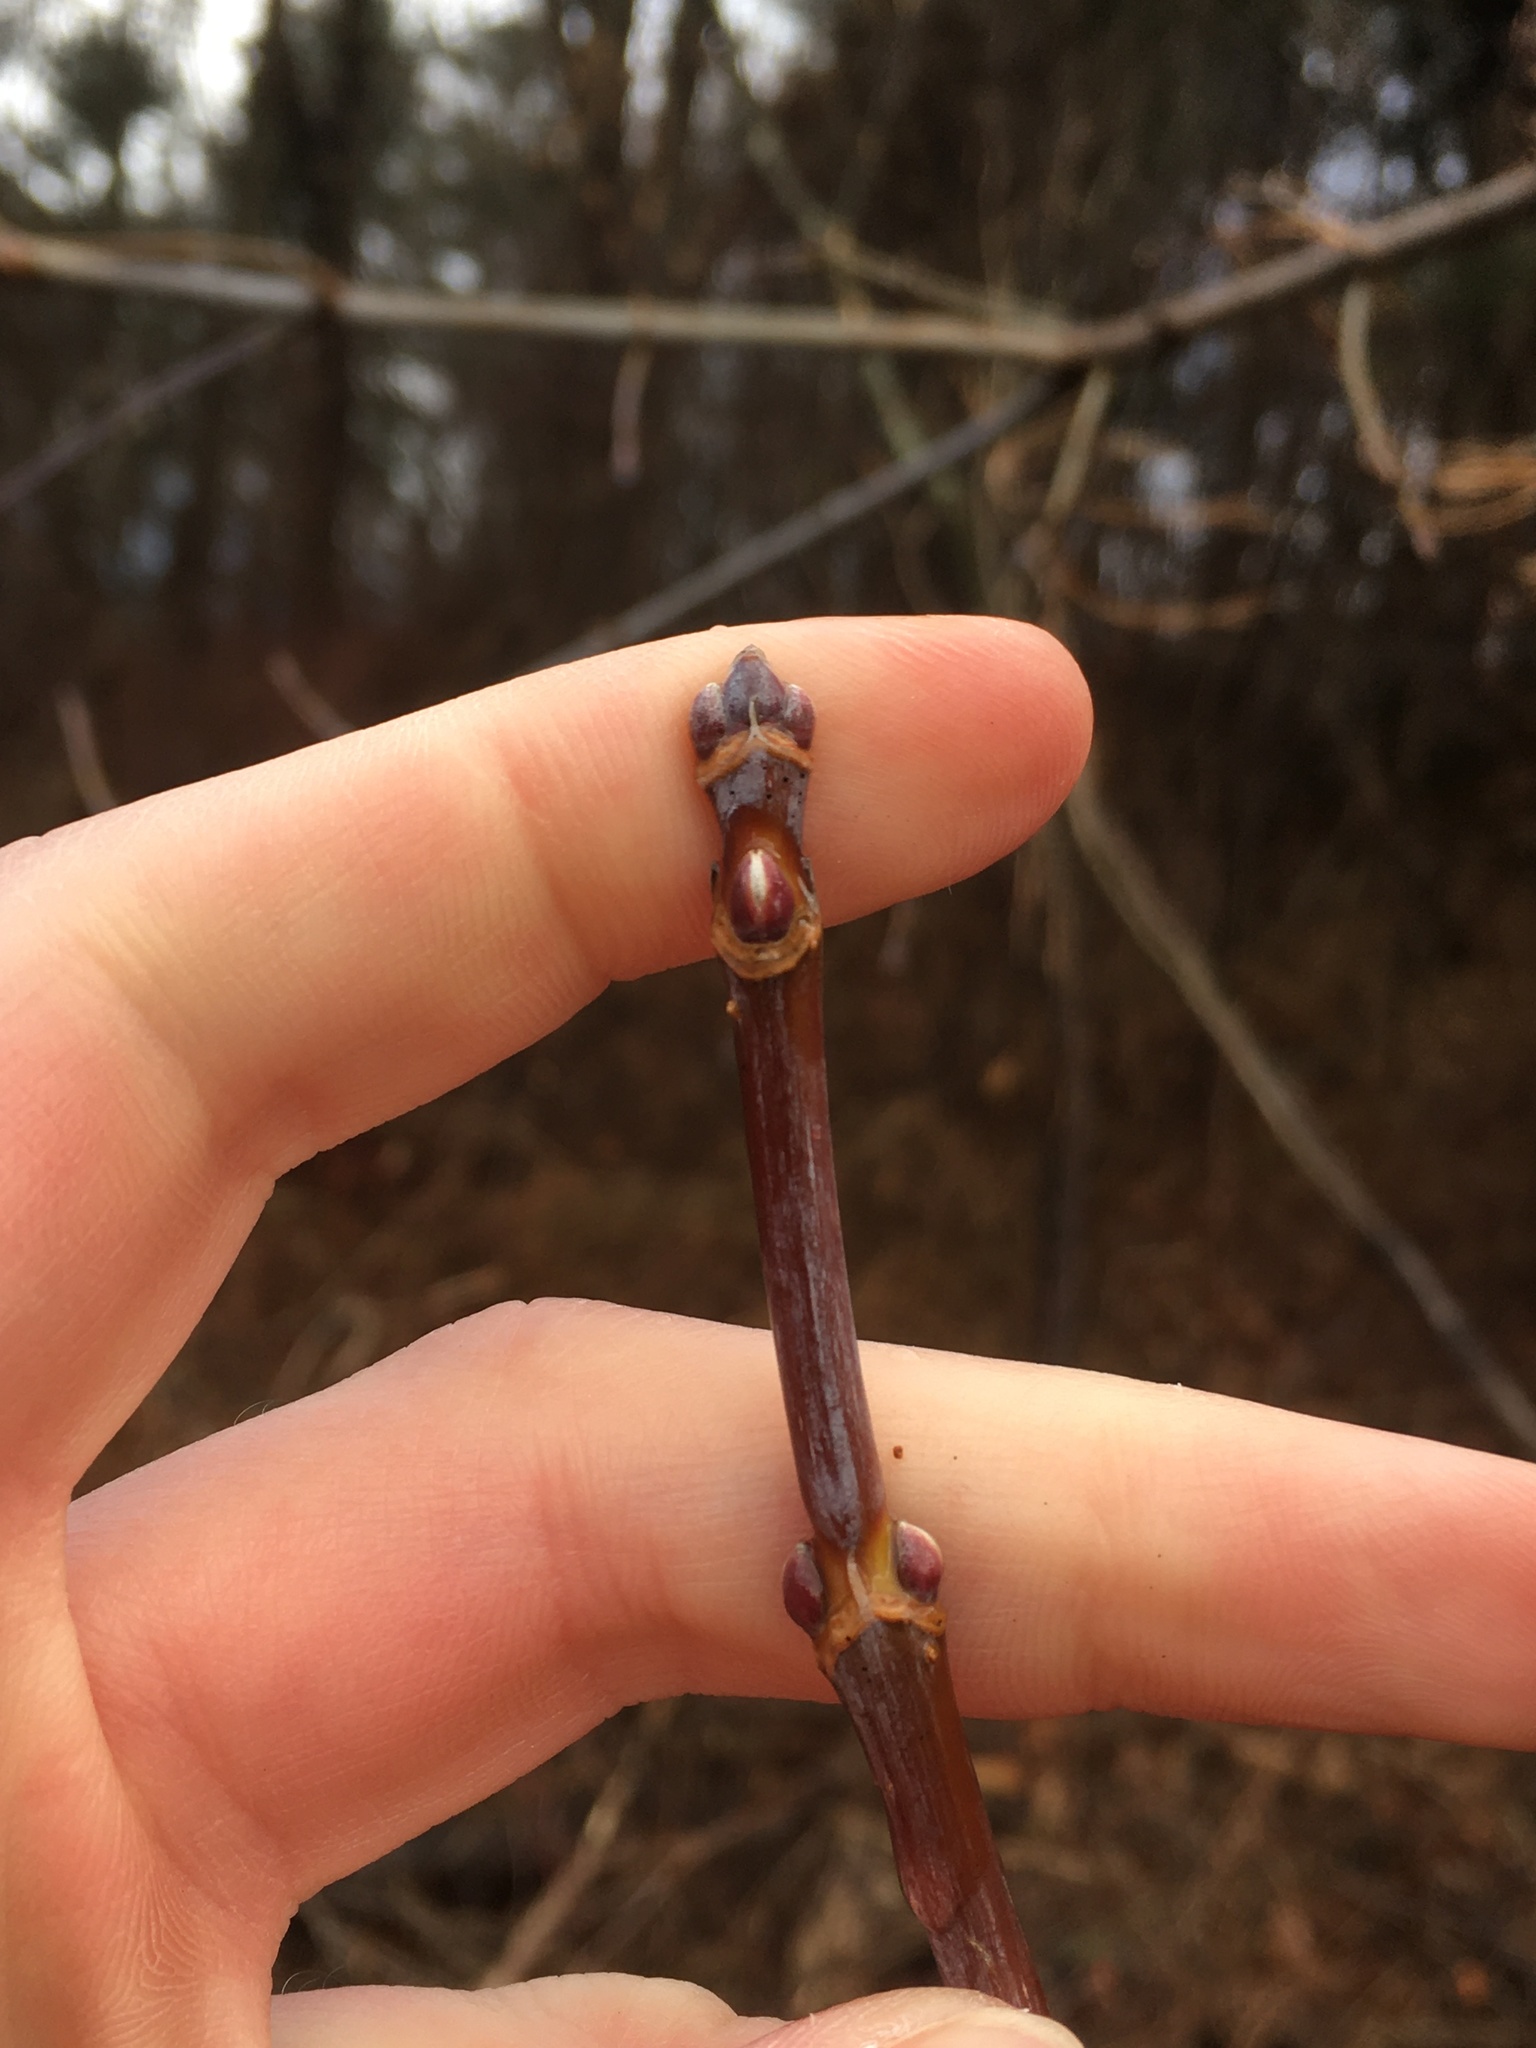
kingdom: Plantae
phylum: Tracheophyta
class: Magnoliopsida
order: Sapindales
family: Sapindaceae
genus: Acer
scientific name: Acer negundo
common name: Ashleaf maple
